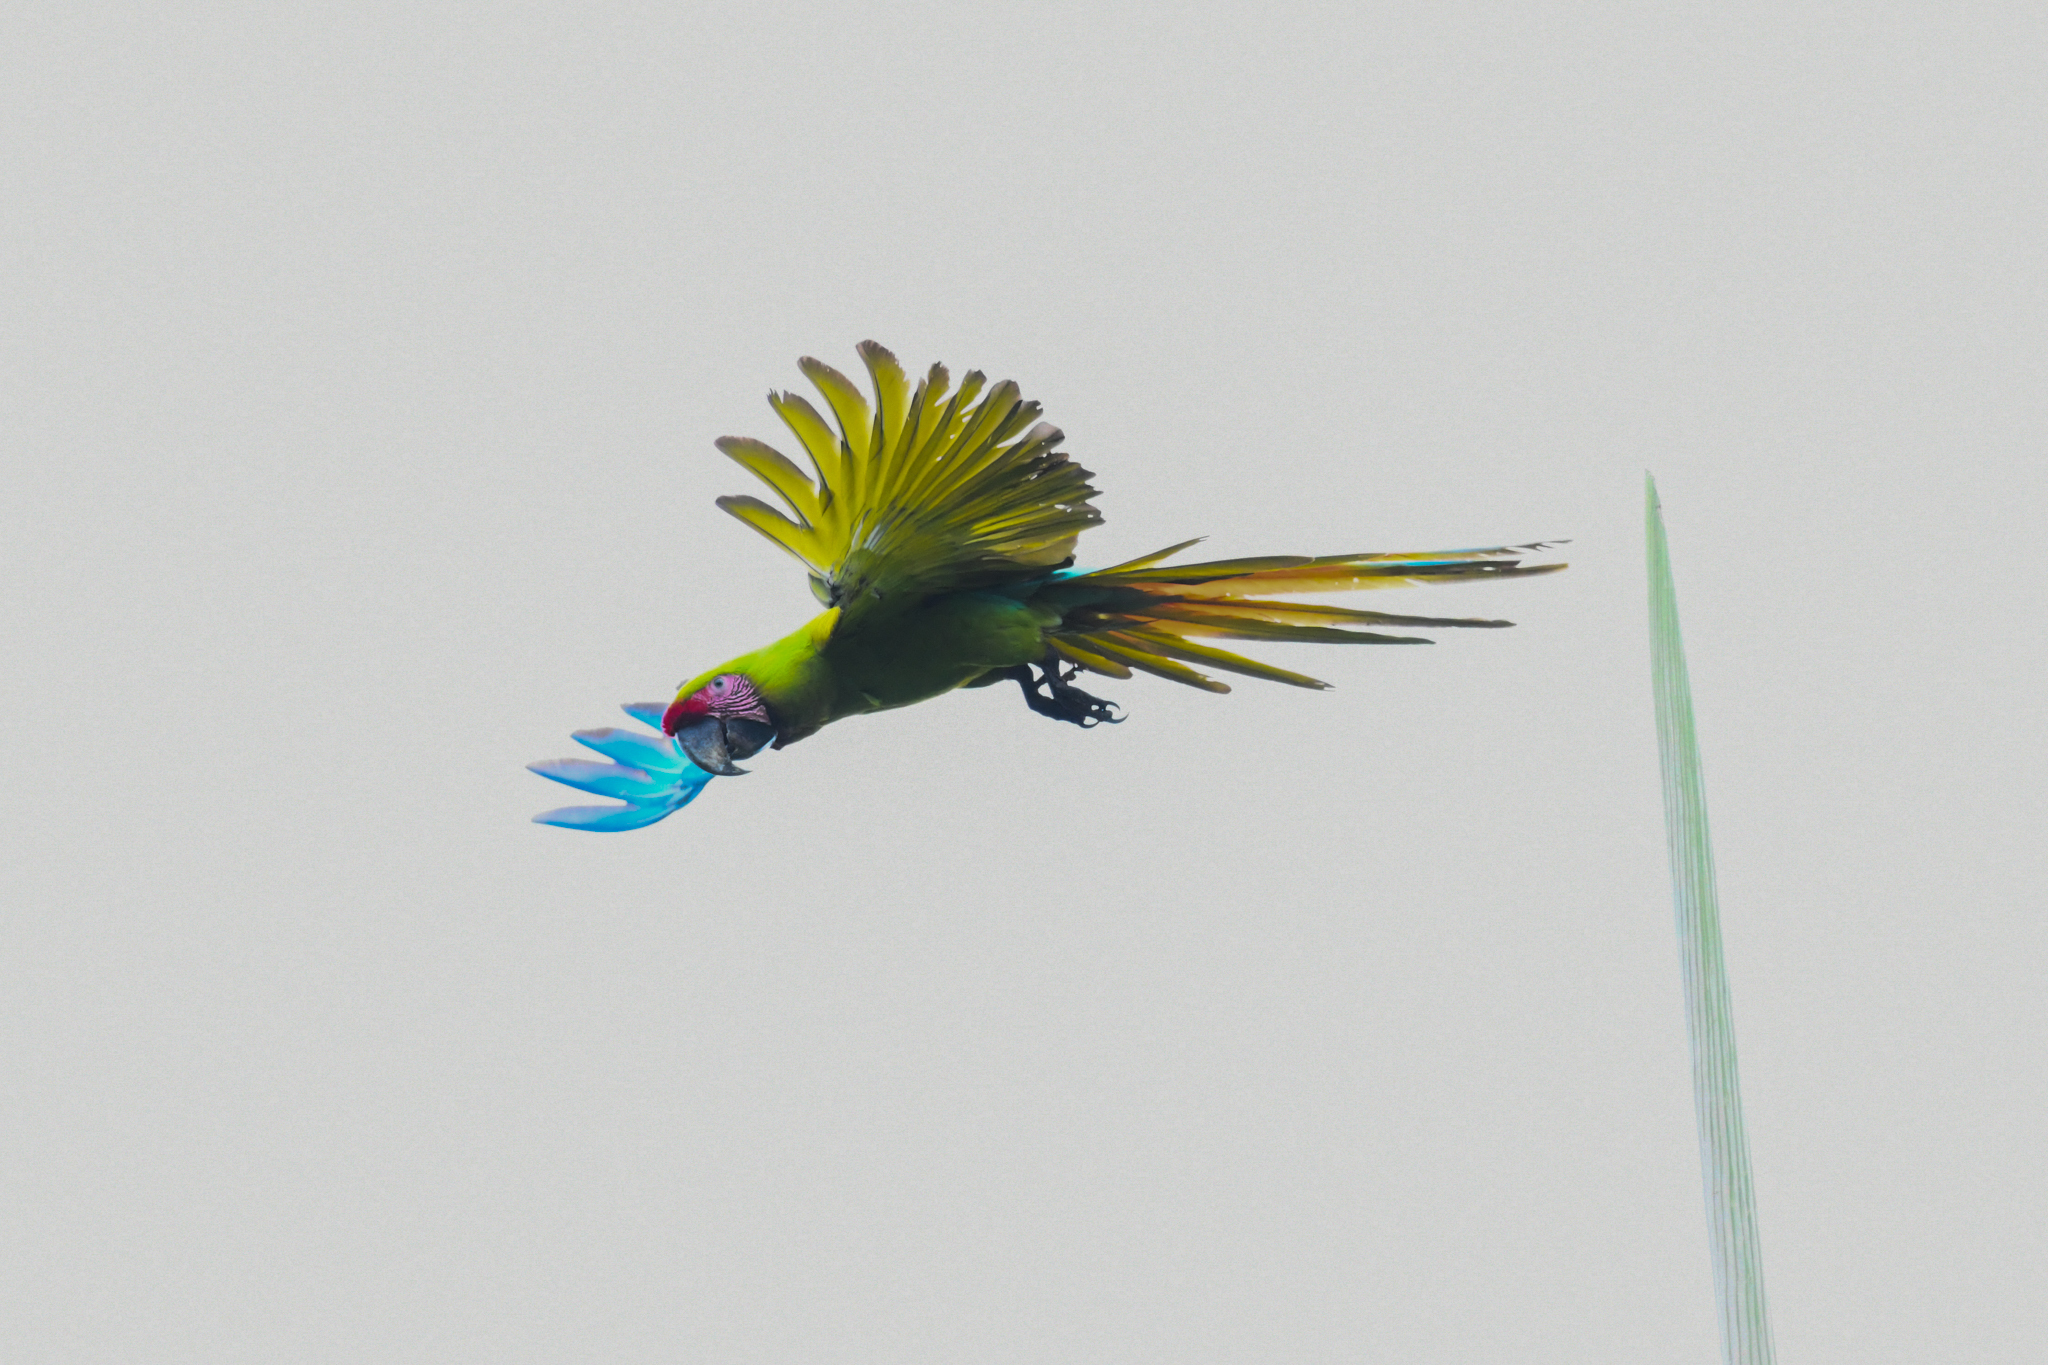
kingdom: Animalia
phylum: Chordata
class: Aves
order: Psittaciformes
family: Psittacidae
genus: Ara
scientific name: Ara ambiguus
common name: Great green macaw
